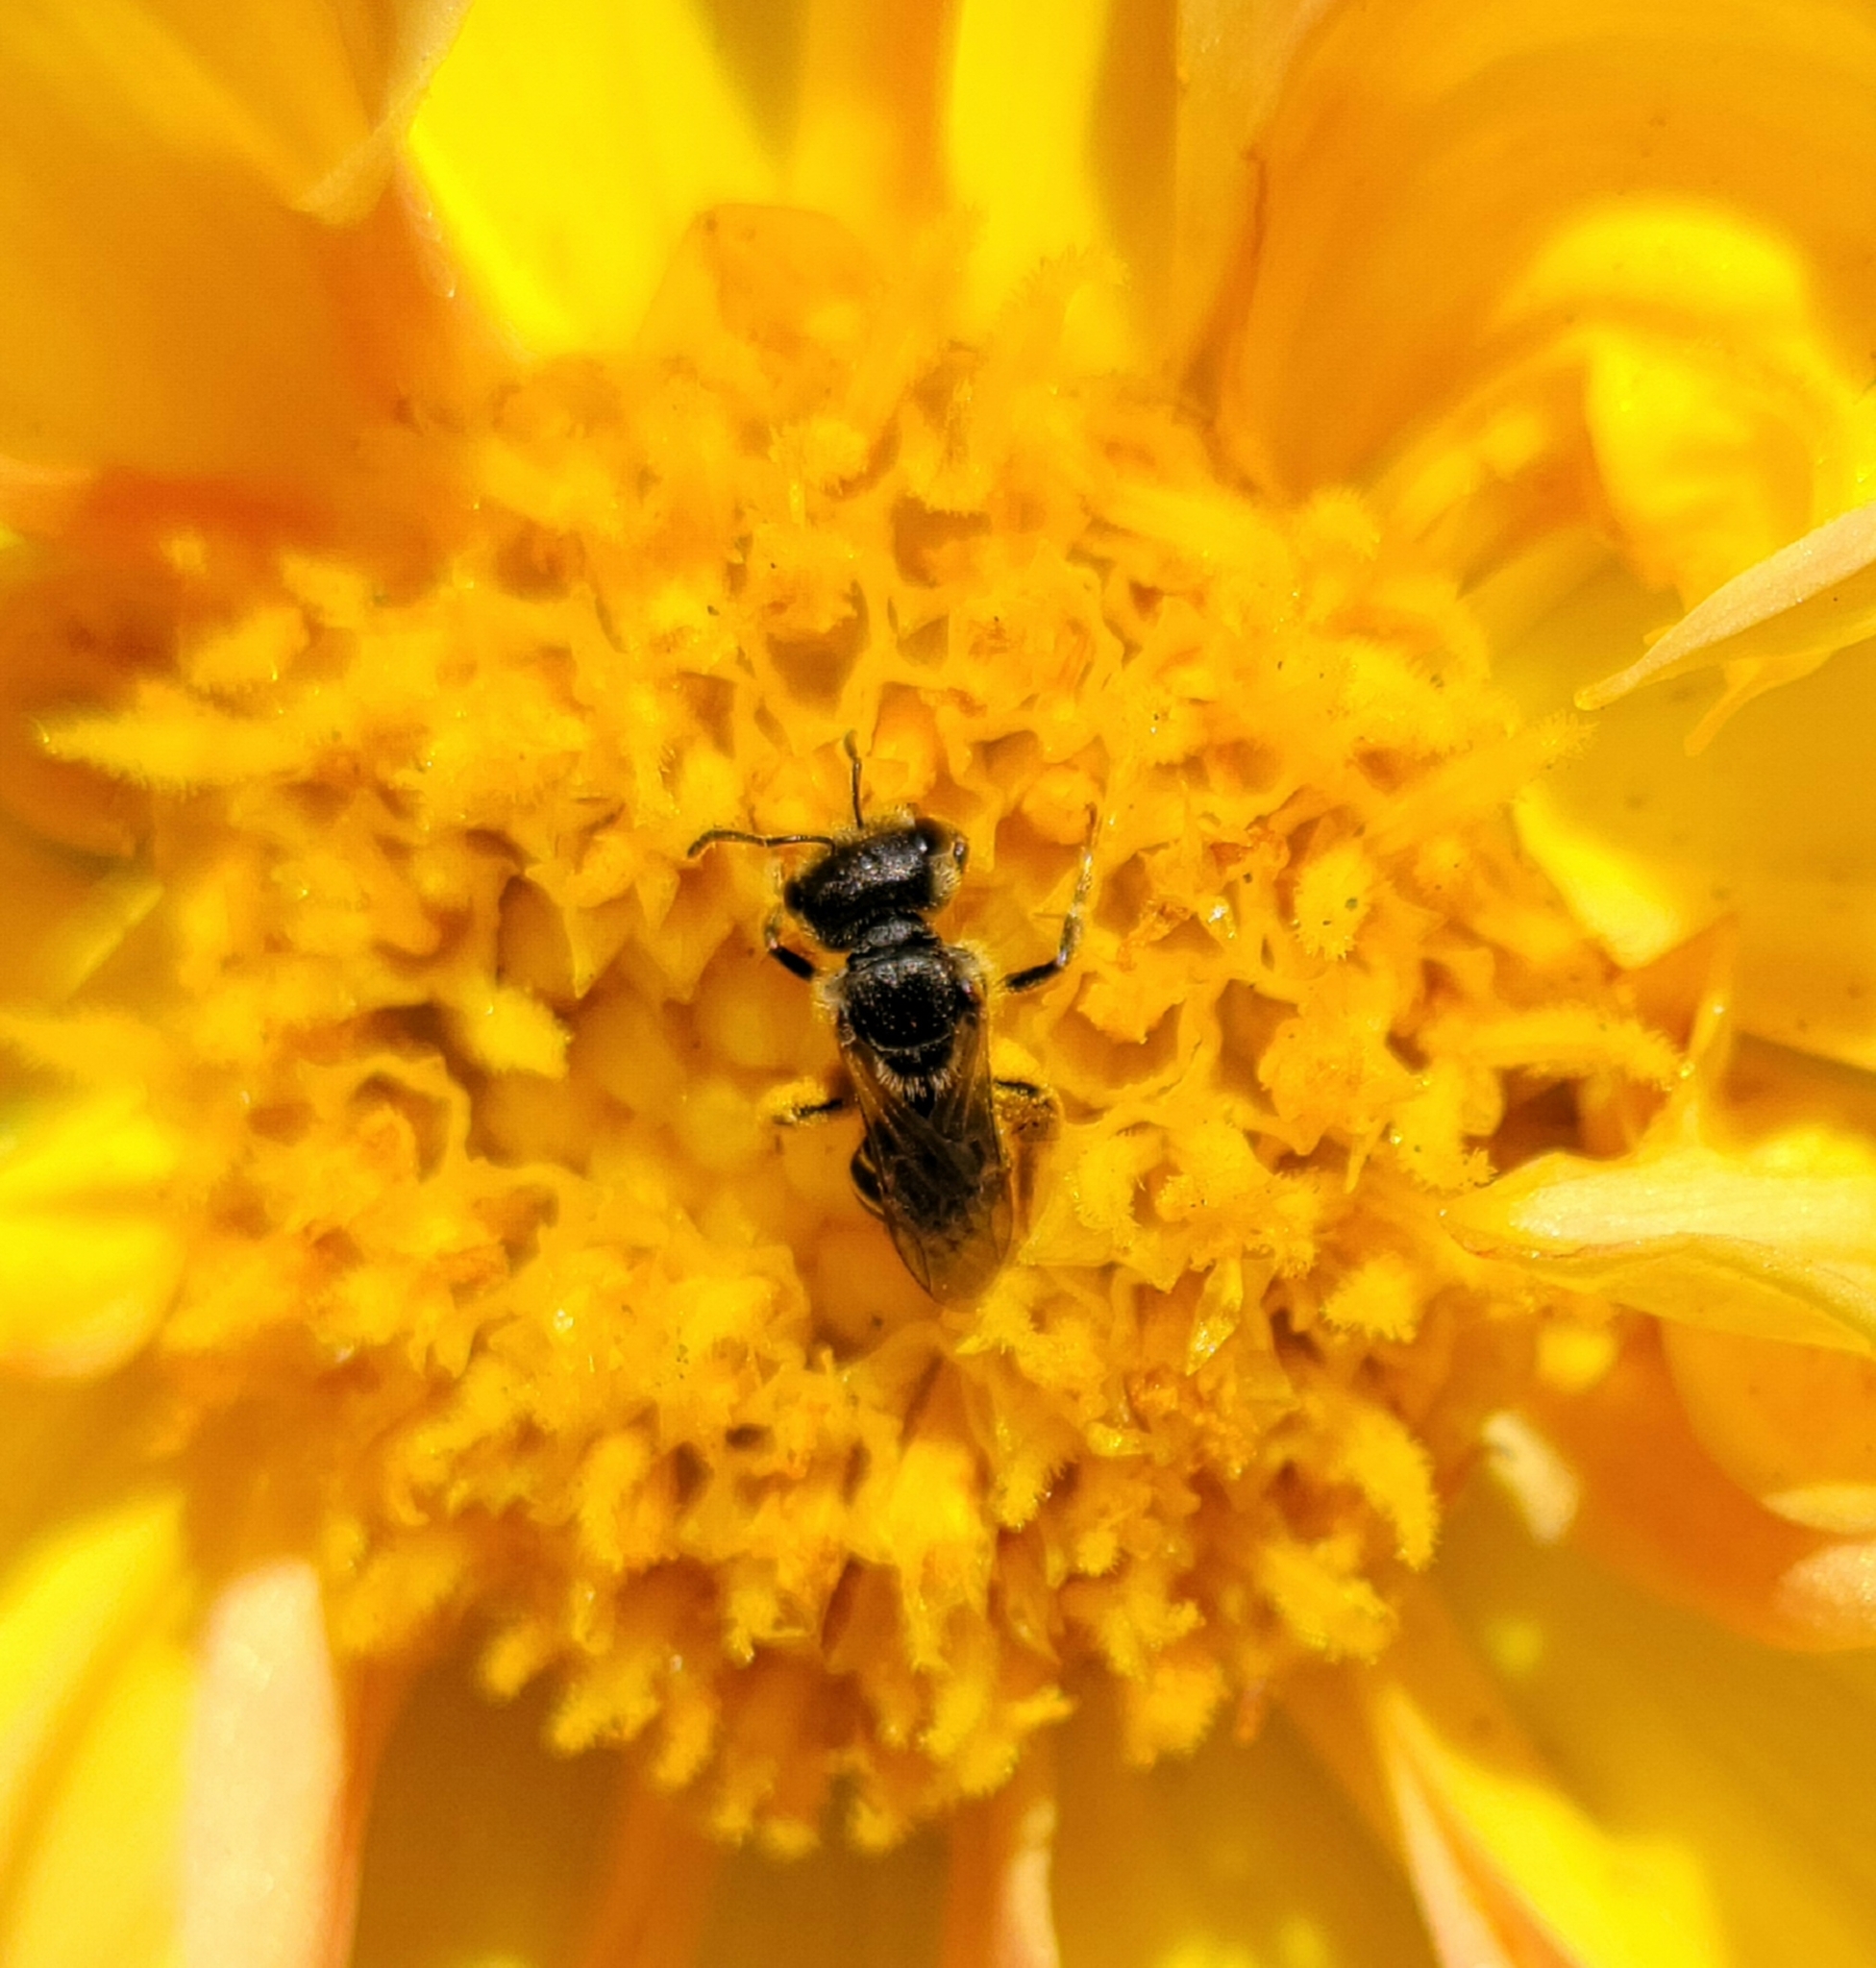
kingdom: Animalia
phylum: Arthropoda
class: Insecta
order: Hymenoptera
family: Halictidae
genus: Halictus
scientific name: Halictus ligatus
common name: Ligated furrow bee
